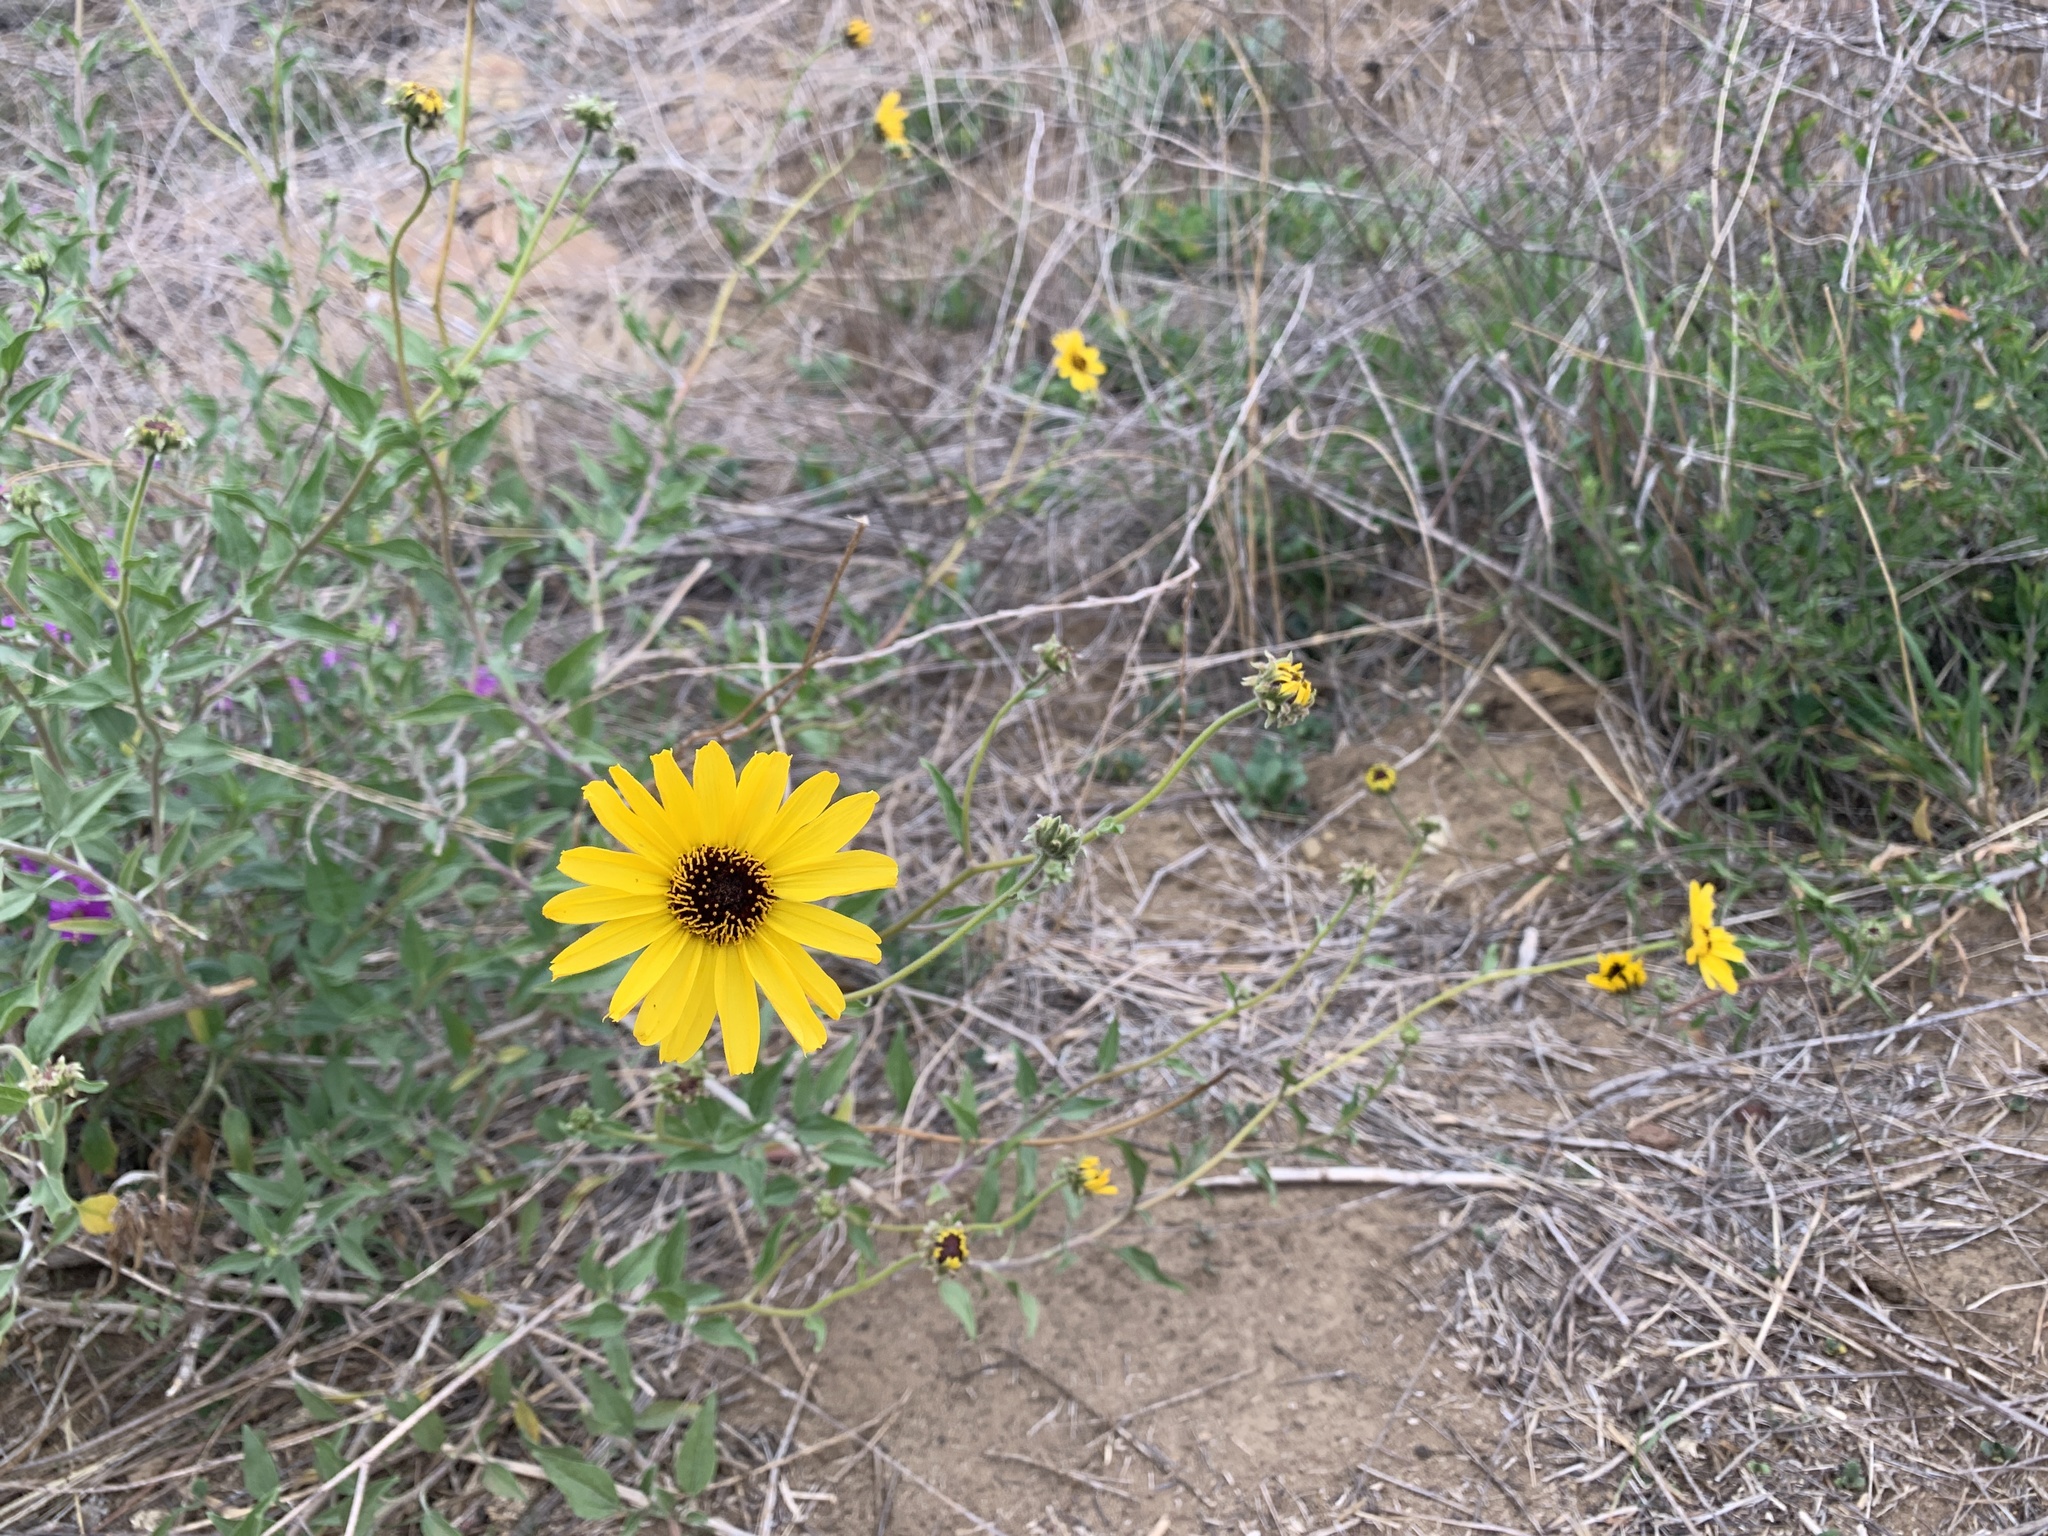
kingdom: Plantae
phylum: Tracheophyta
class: Magnoliopsida
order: Asterales
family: Asteraceae
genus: Encelia
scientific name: Encelia californica
